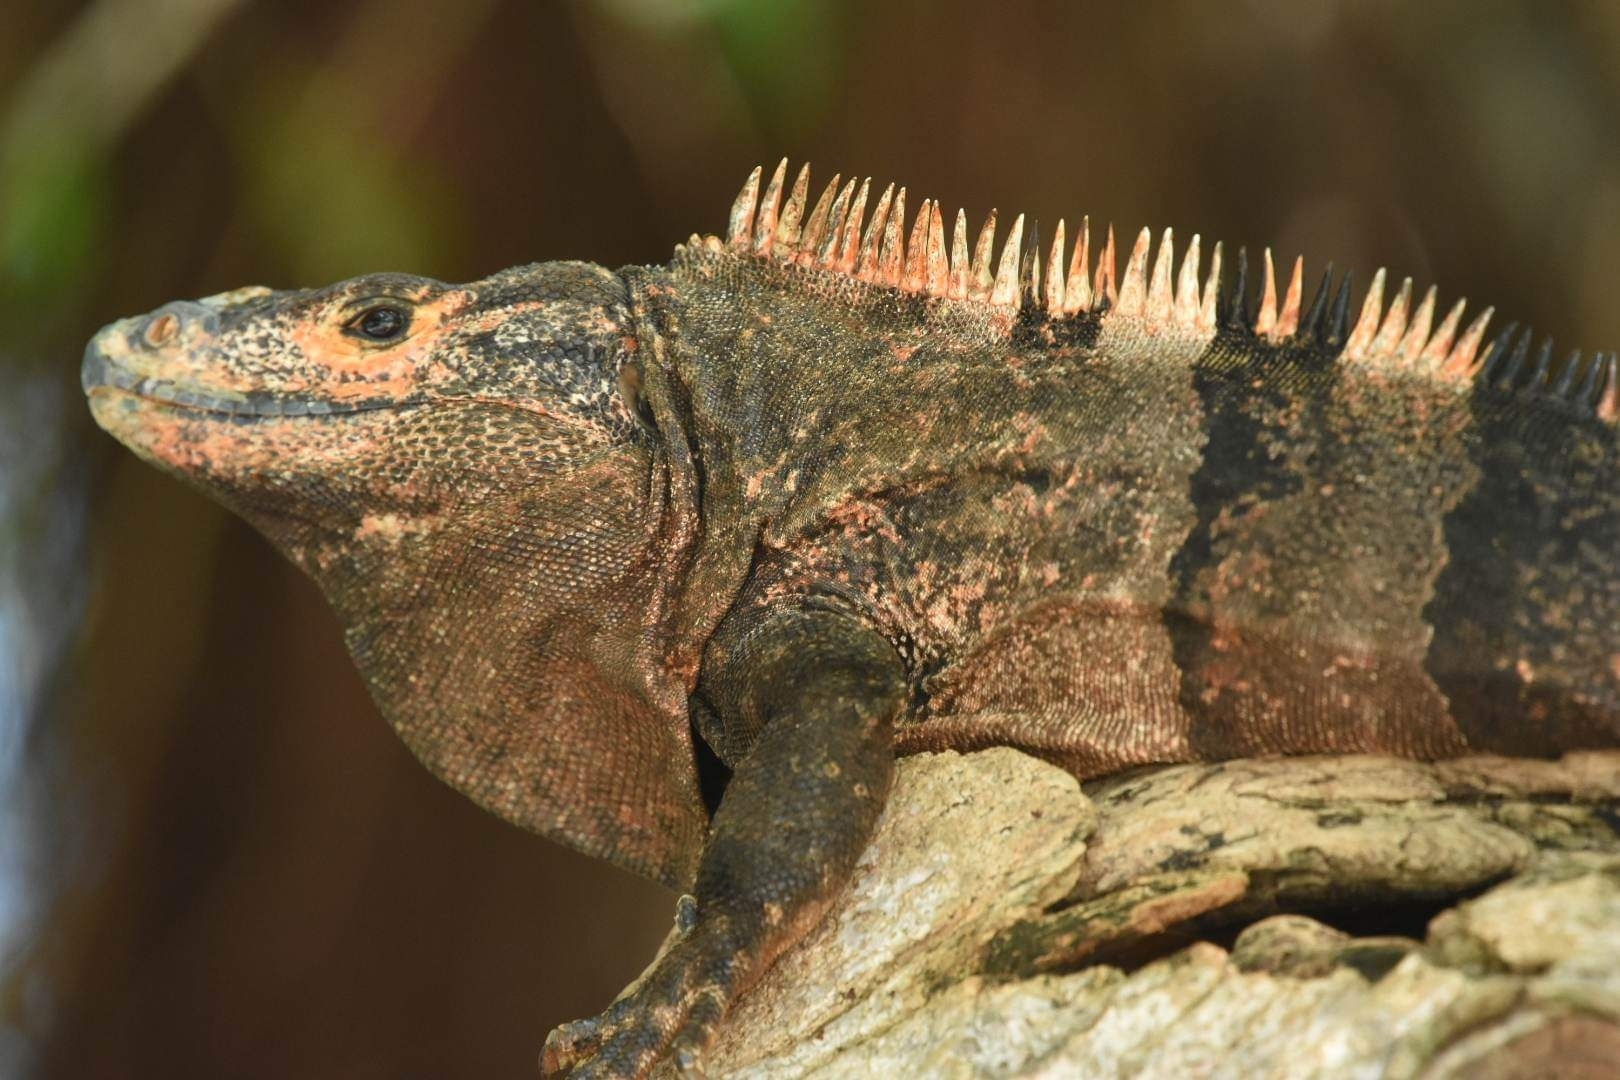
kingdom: Animalia
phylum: Chordata
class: Squamata
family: Iguanidae
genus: Ctenosaura
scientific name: Ctenosaura similis
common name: Black spiny-tailed iguana
